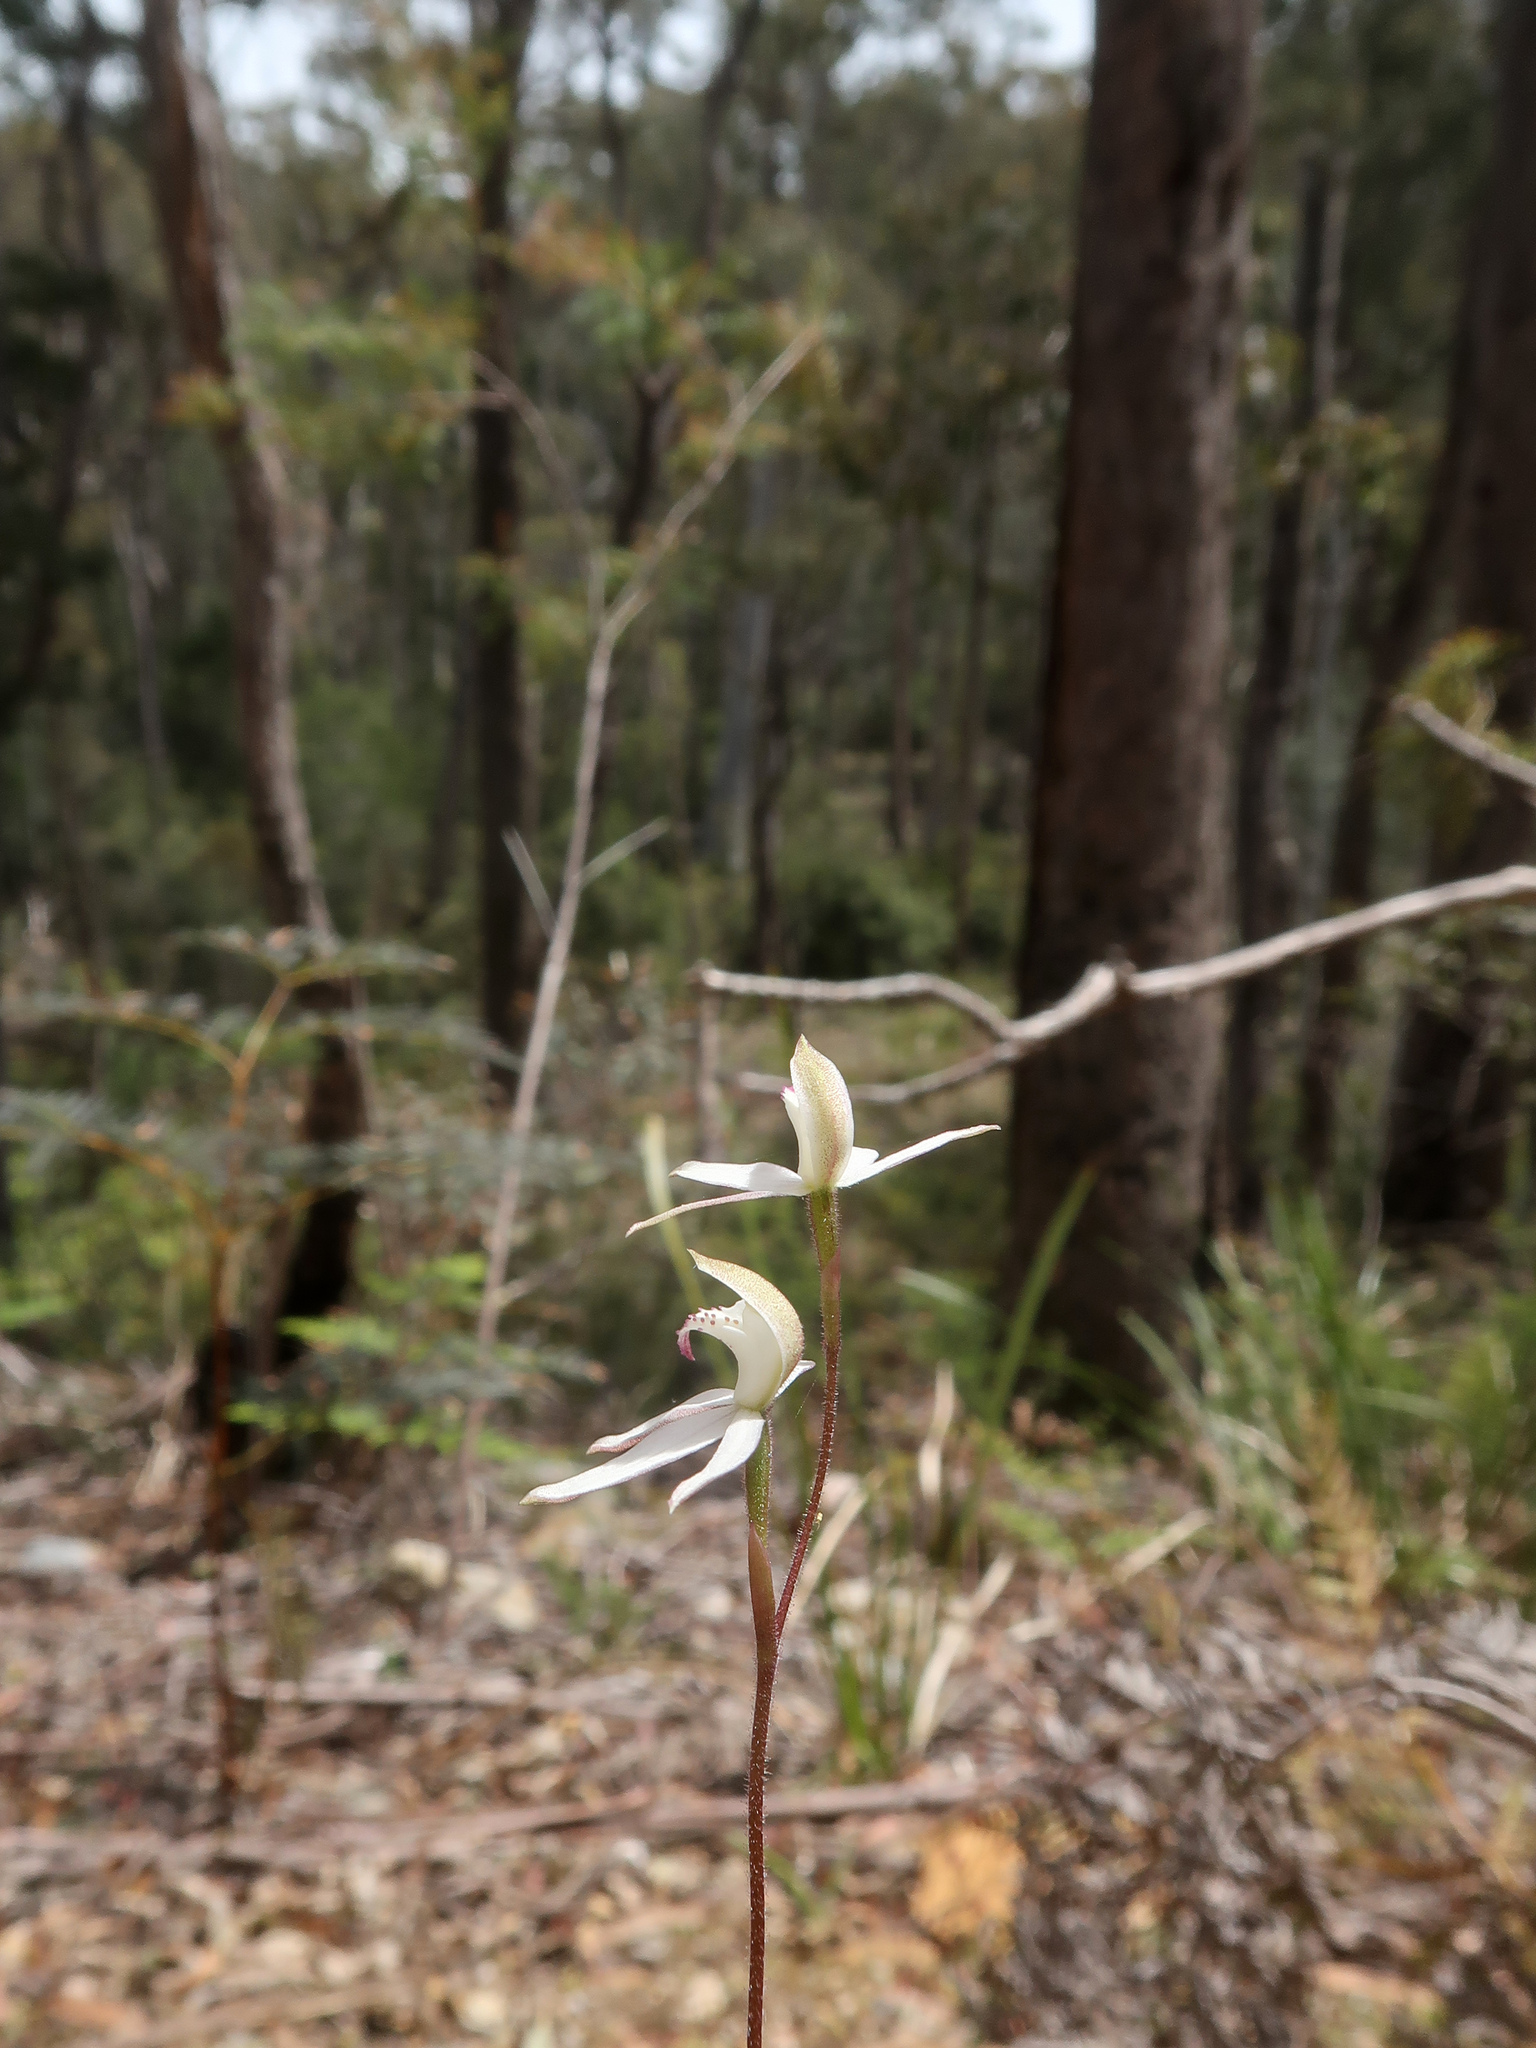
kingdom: Plantae
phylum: Tracheophyta
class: Liliopsida
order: Asparagales
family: Orchidaceae
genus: Caladenia
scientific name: Caladenia gracilis
